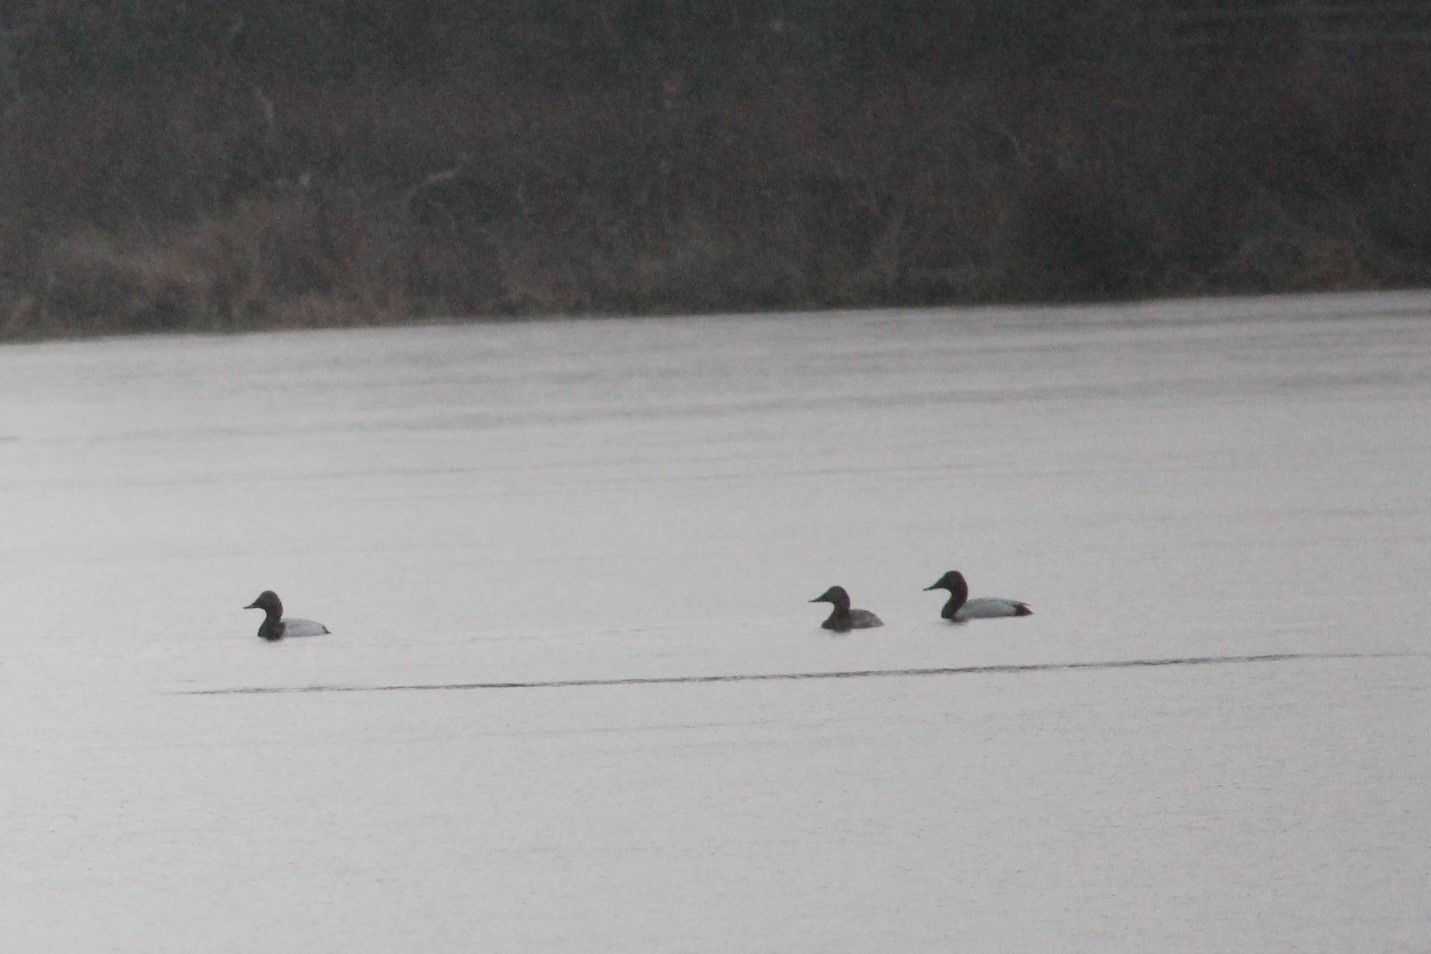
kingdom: Animalia
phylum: Chordata
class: Aves
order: Anseriformes
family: Anatidae
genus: Aythya
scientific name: Aythya valisineria
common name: Canvasback
